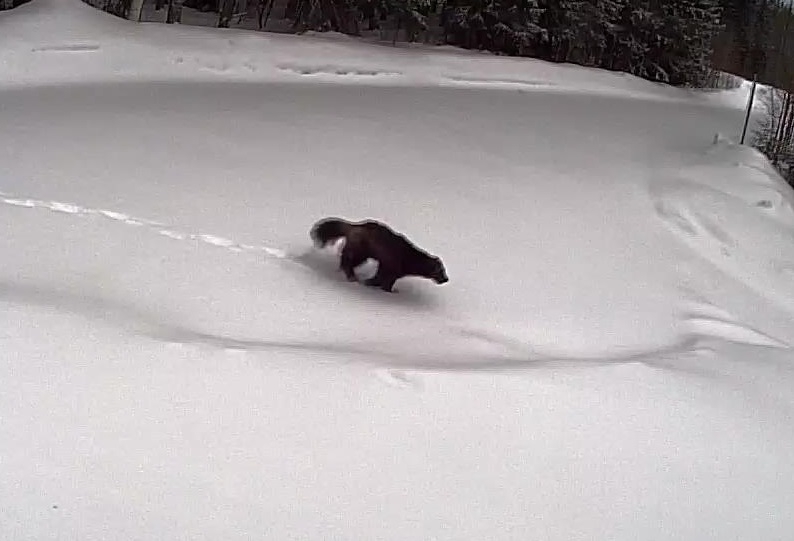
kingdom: Animalia
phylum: Chordata
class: Mammalia
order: Carnivora
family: Mustelidae
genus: Gulo
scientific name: Gulo gulo
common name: Wolverine
